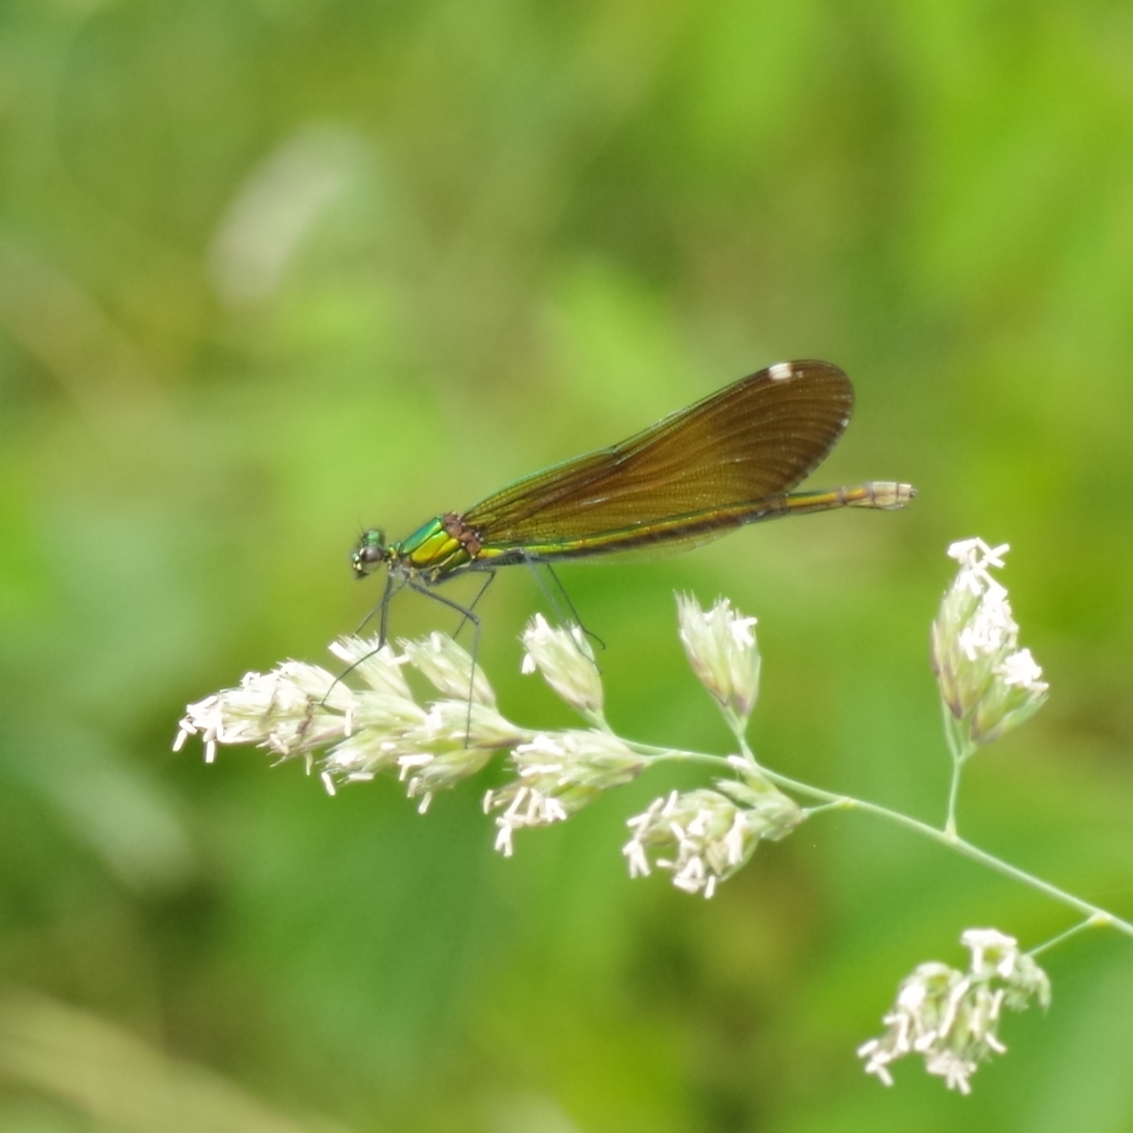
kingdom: Animalia
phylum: Arthropoda
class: Insecta
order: Odonata
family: Calopterygidae
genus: Calopteryx
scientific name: Calopteryx virgo
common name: Beautiful demoiselle
